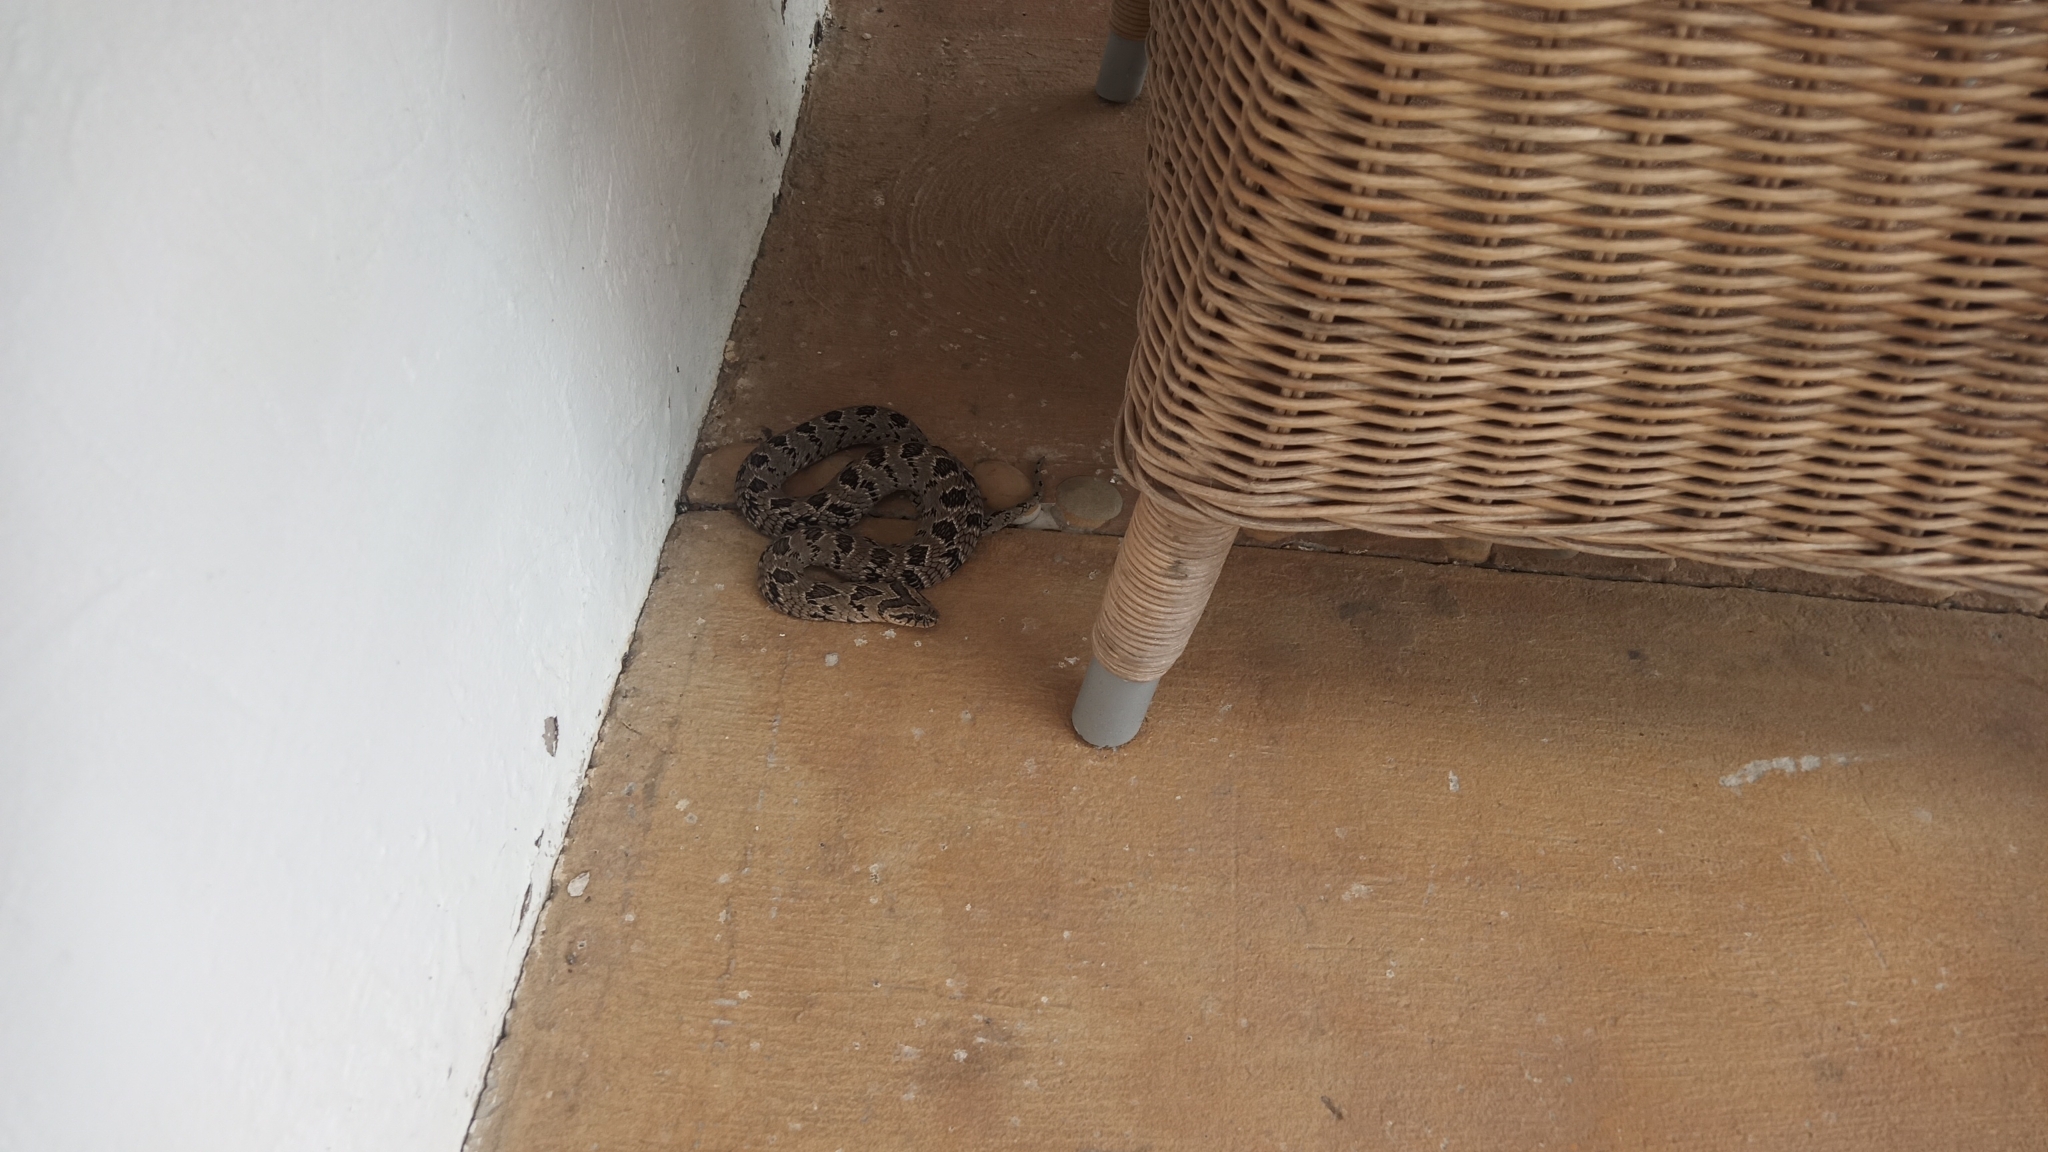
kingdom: Animalia
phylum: Chordata
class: Squamata
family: Viperidae
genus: Causus
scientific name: Causus rhombeatus
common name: Common night adder
